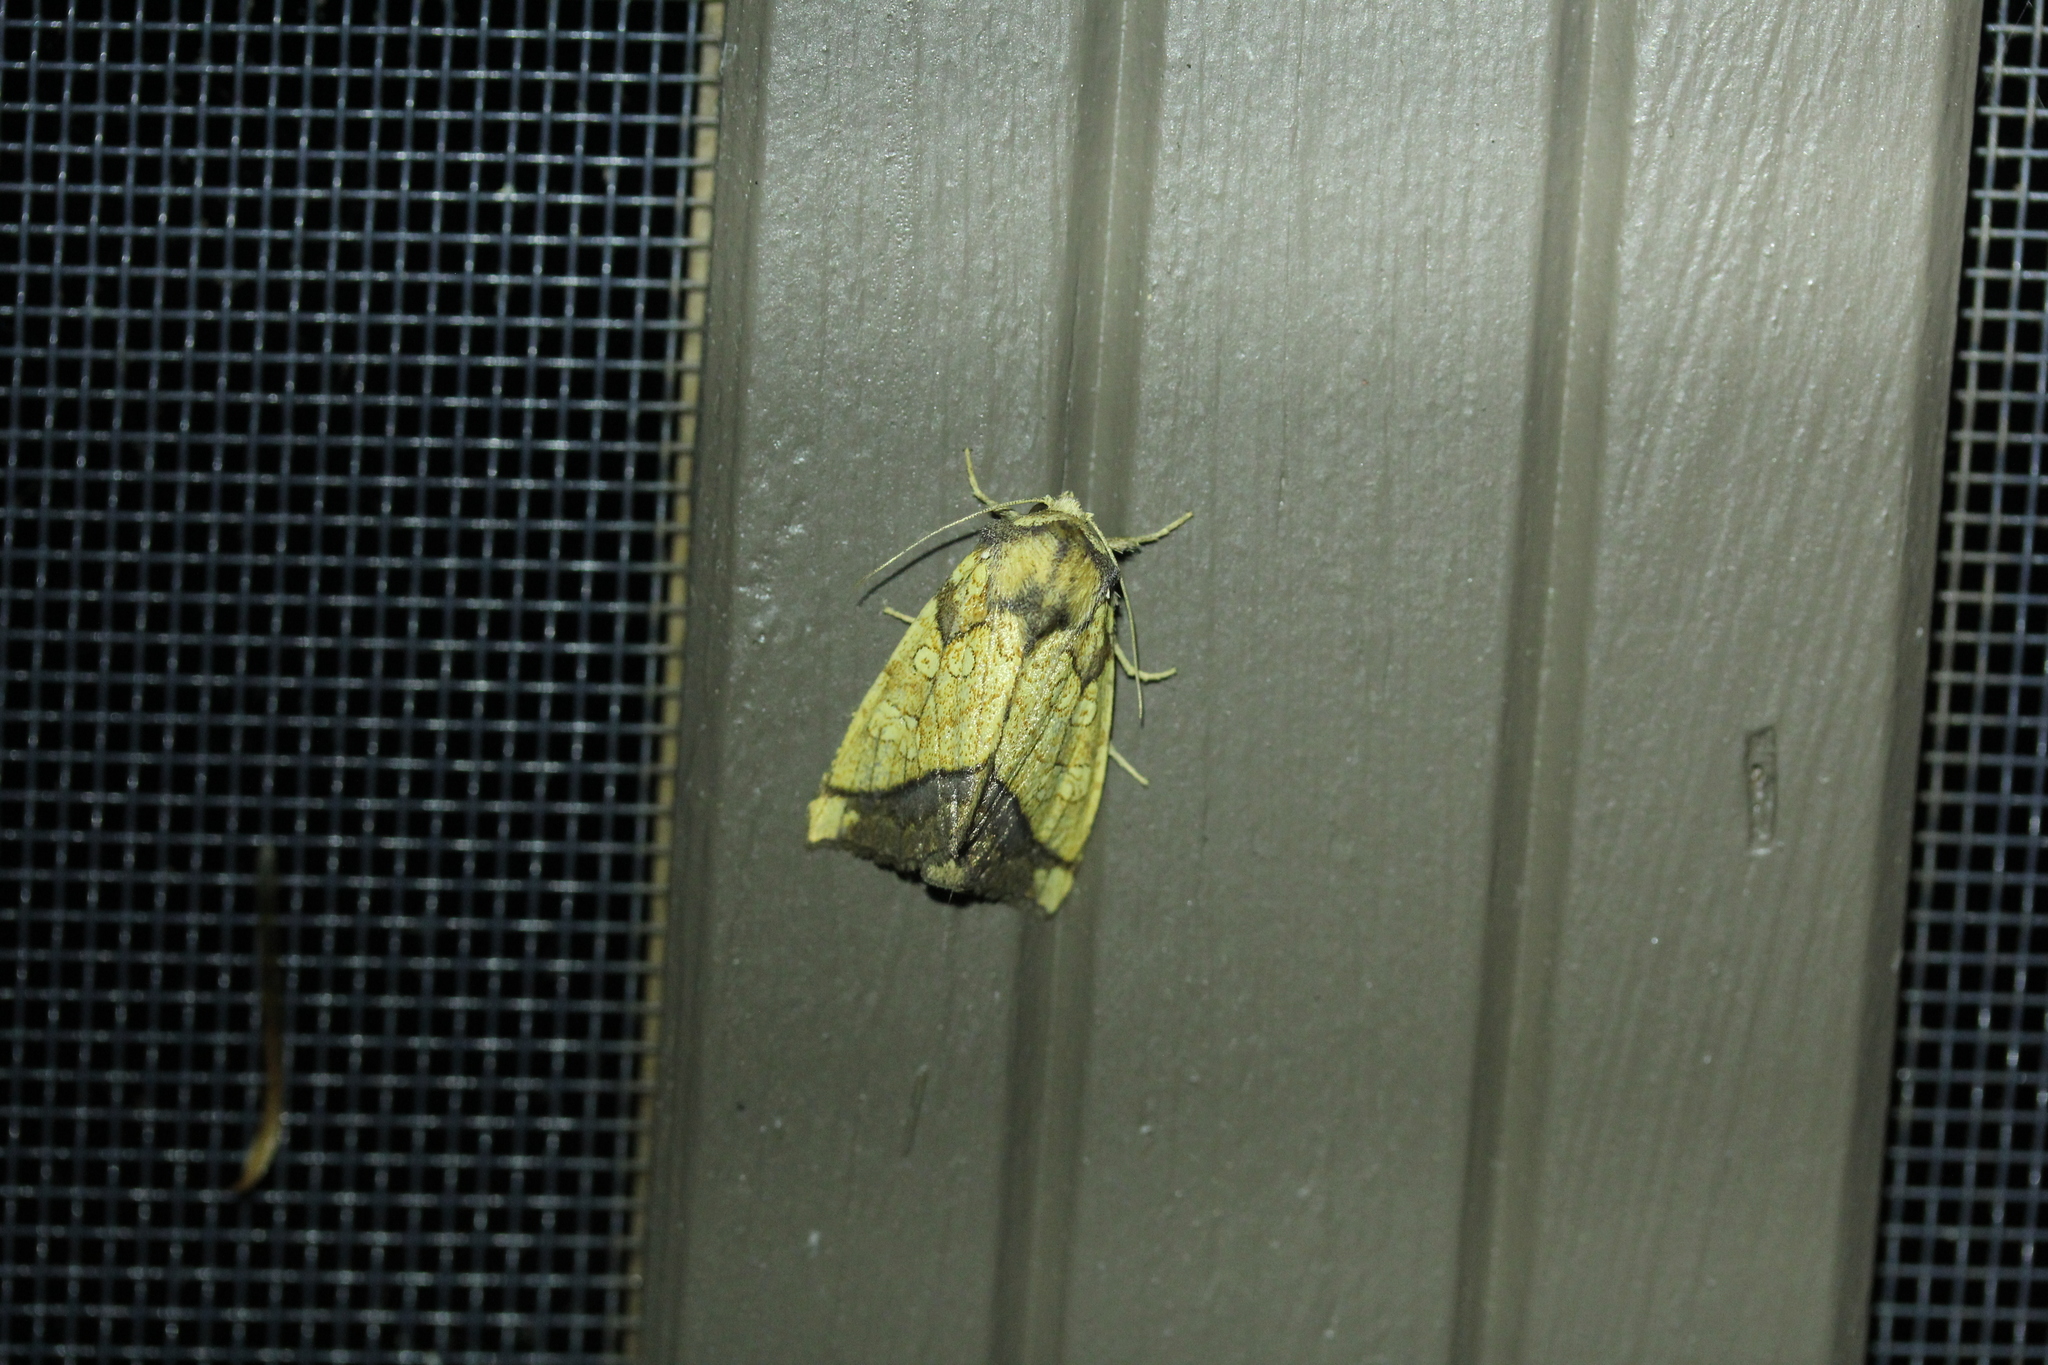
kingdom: Animalia
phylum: Arthropoda
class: Insecta
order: Lepidoptera
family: Noctuidae
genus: Papaipema
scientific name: Papaipema rigida
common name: Rigid sunflower borer moth
